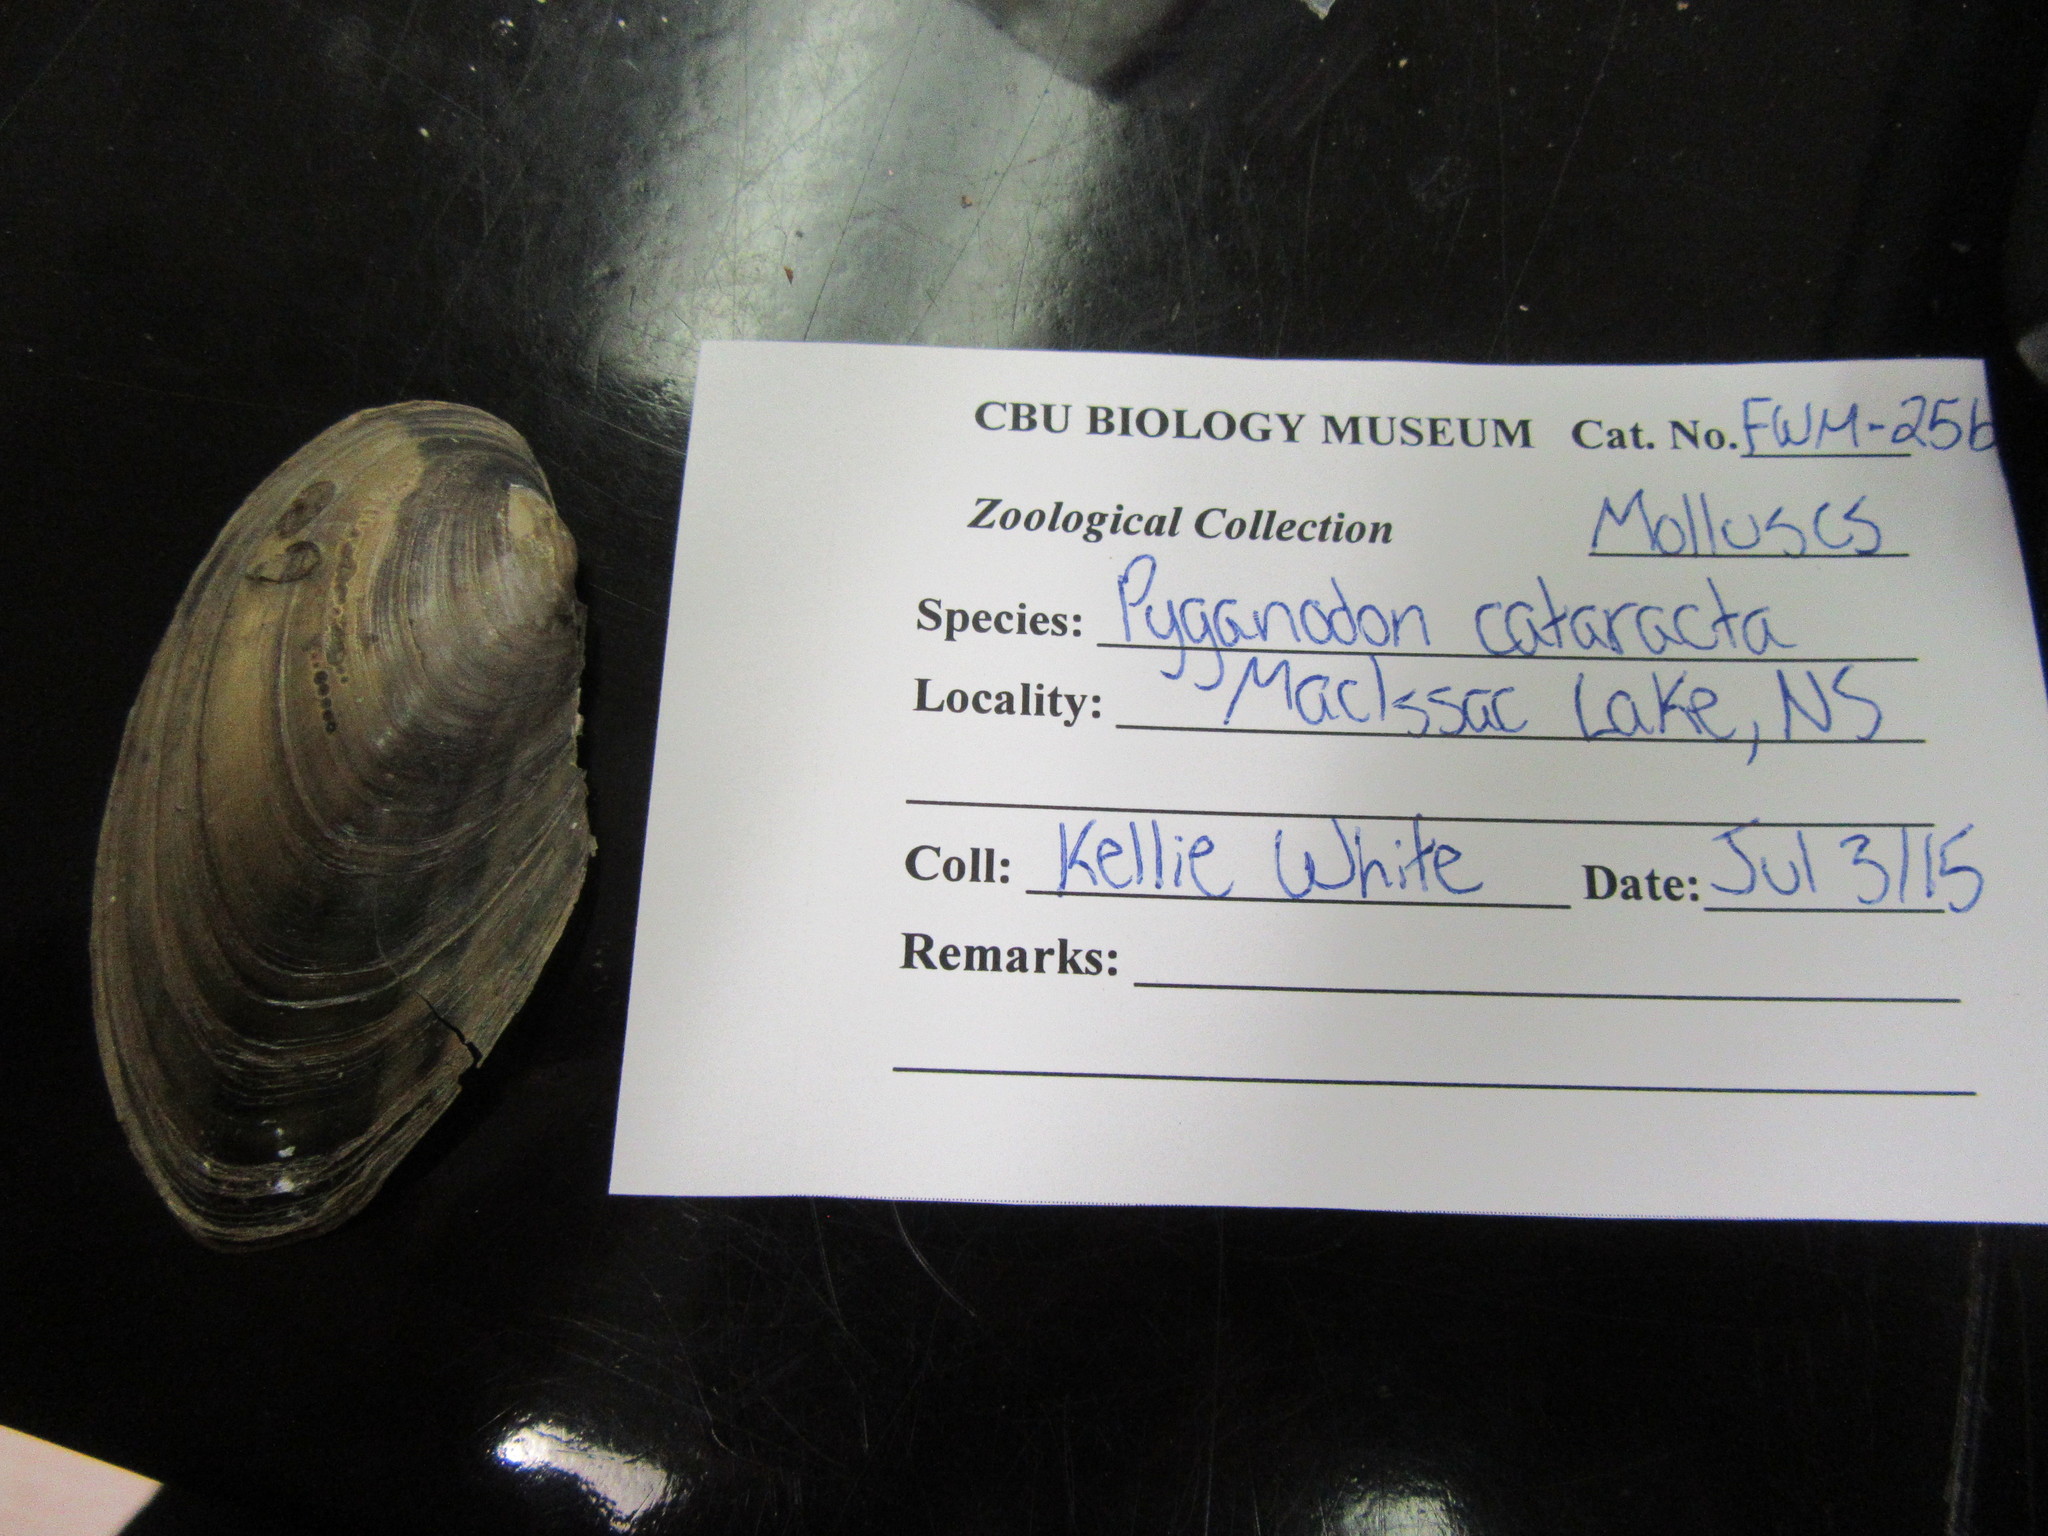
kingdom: Animalia
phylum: Mollusca
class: Bivalvia
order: Unionida
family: Unionidae
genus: Pyganodon
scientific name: Pyganodon cataracta
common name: Eastern floater
